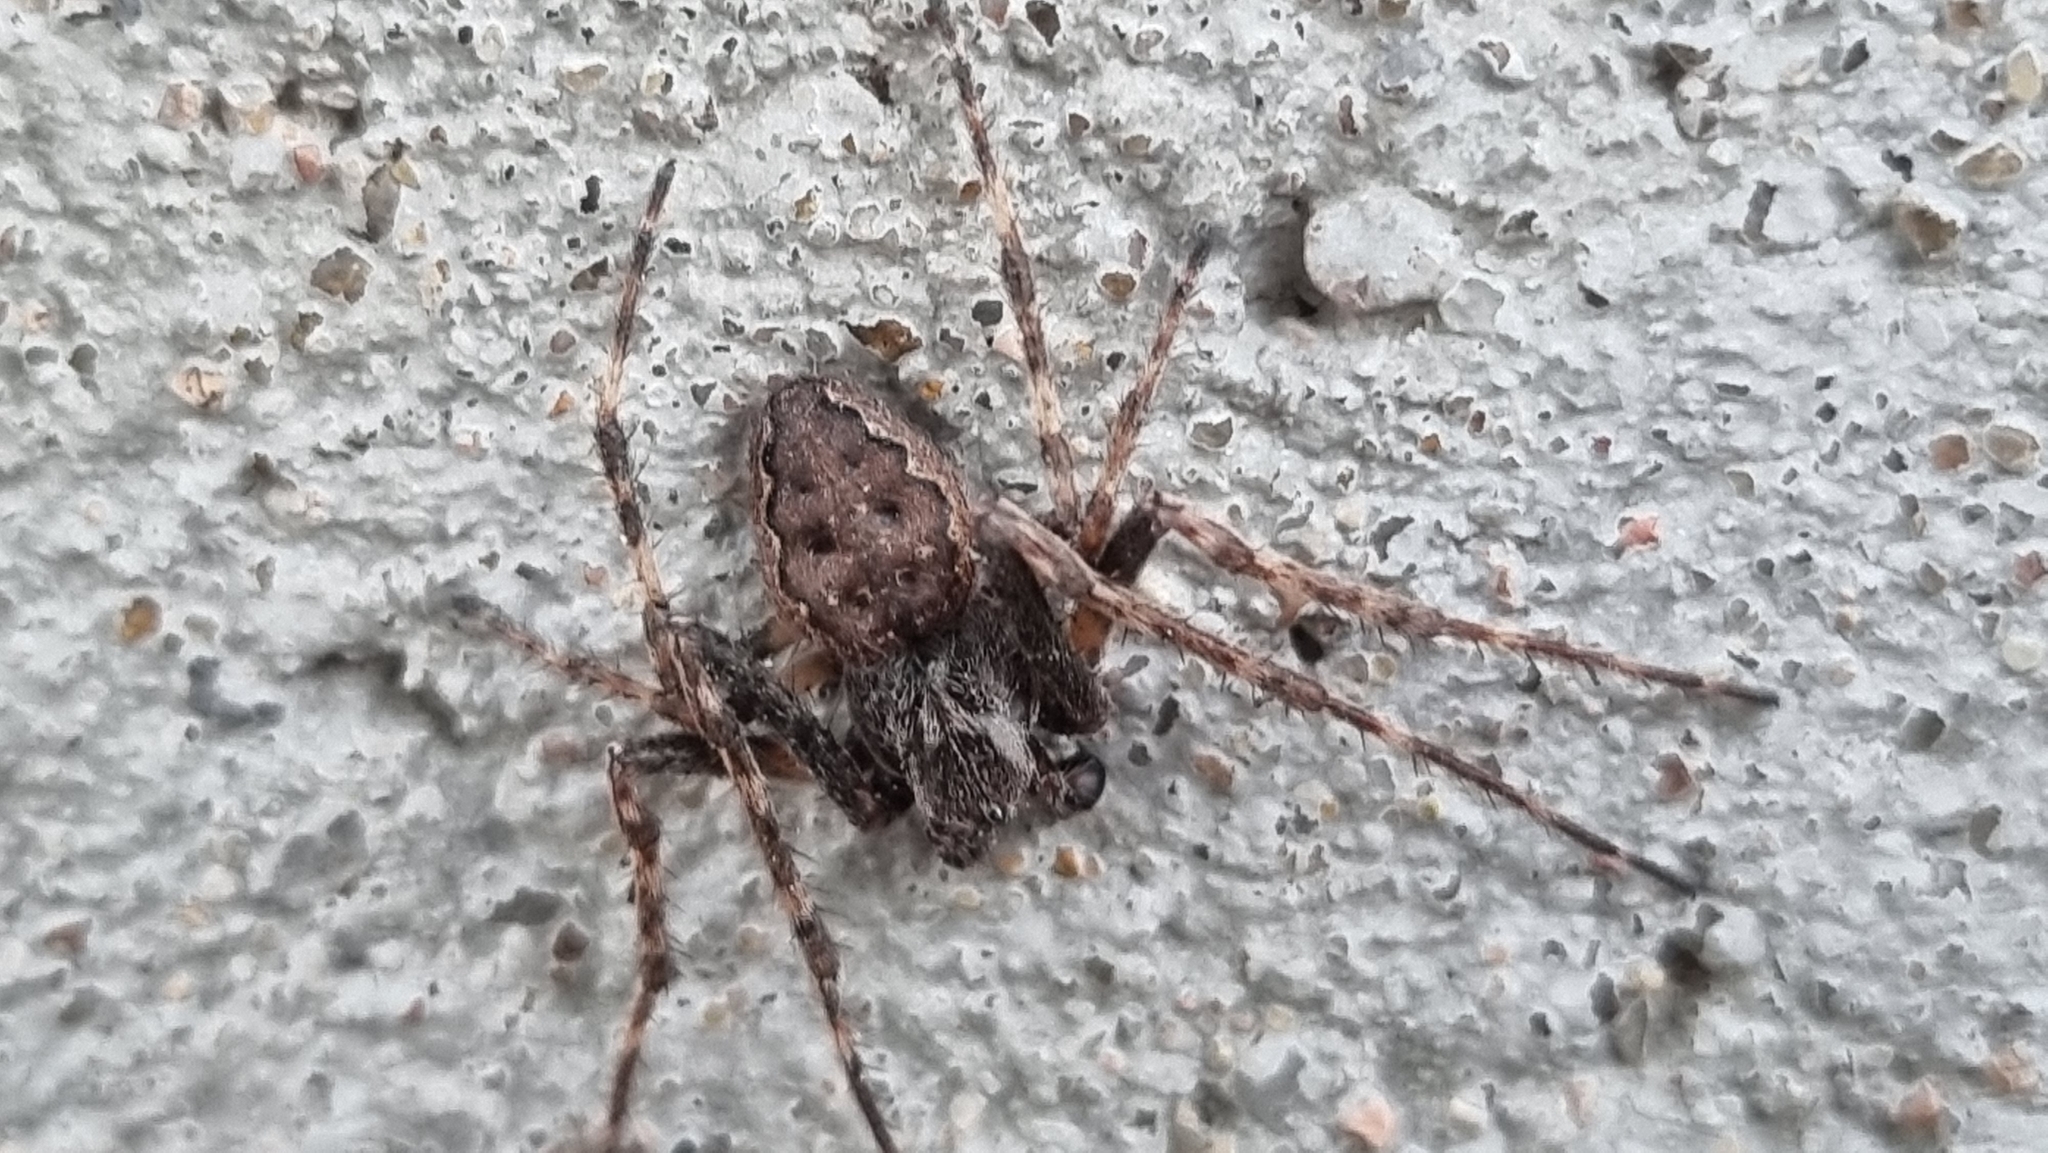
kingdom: Animalia
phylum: Arthropoda
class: Arachnida
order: Araneae
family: Araneidae
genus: Nuctenea
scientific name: Nuctenea umbratica
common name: Toad spider
